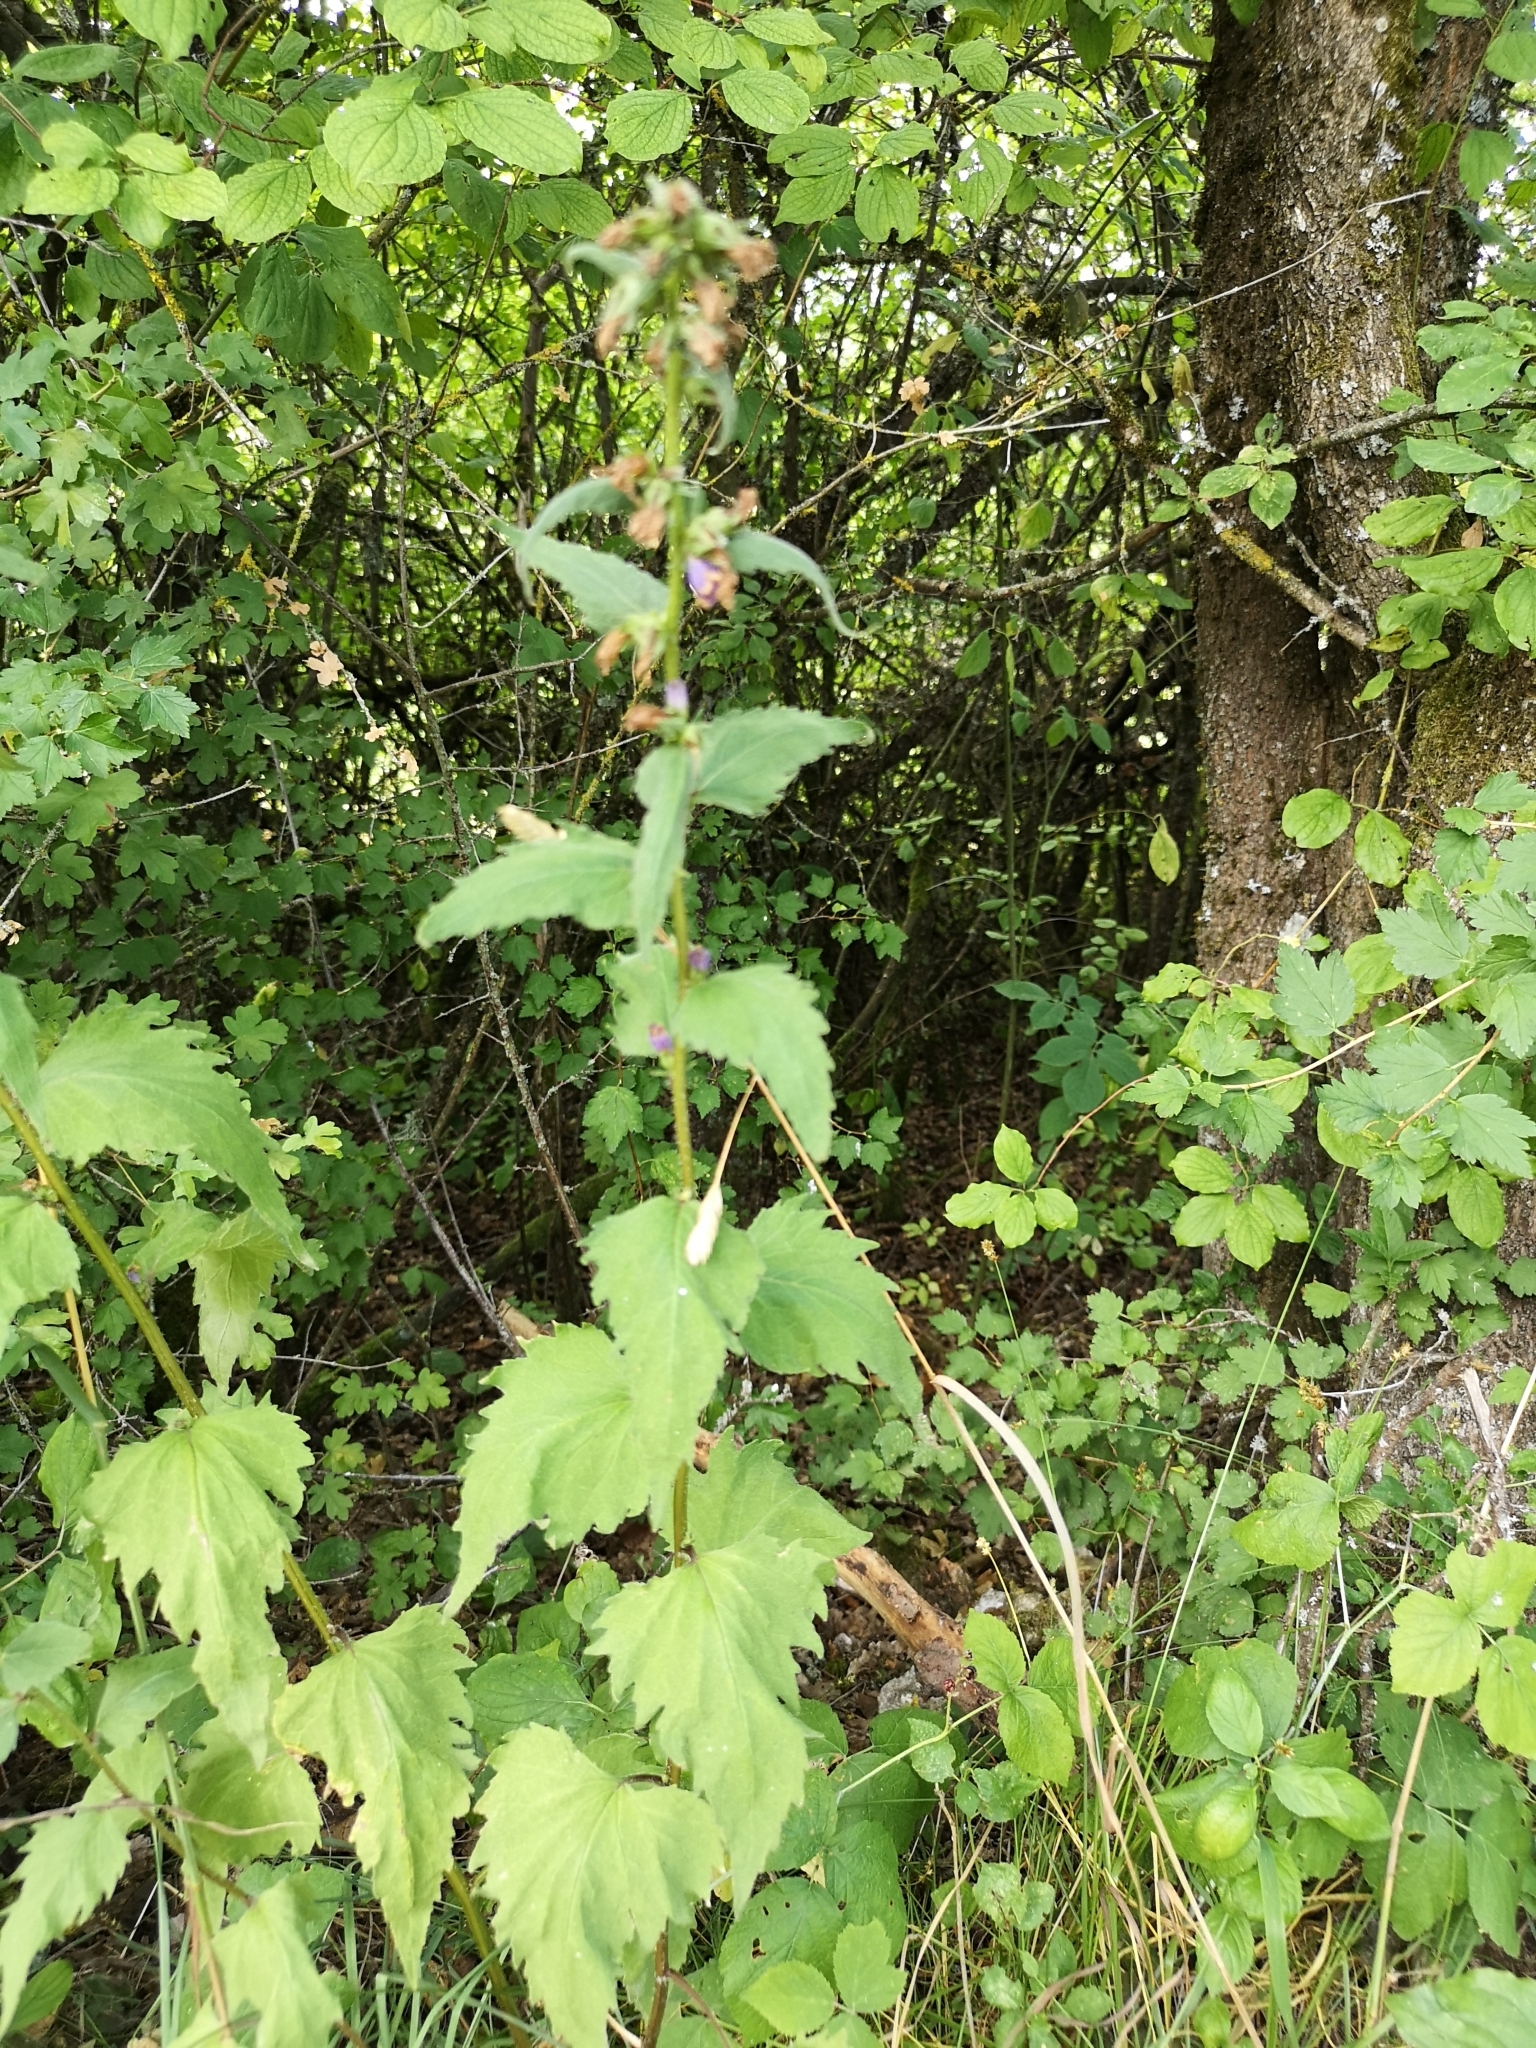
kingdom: Plantae
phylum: Tracheophyta
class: Magnoliopsida
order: Asterales
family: Campanulaceae
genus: Campanula
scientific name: Campanula trachelium
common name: Nettle-leaved bellflower
